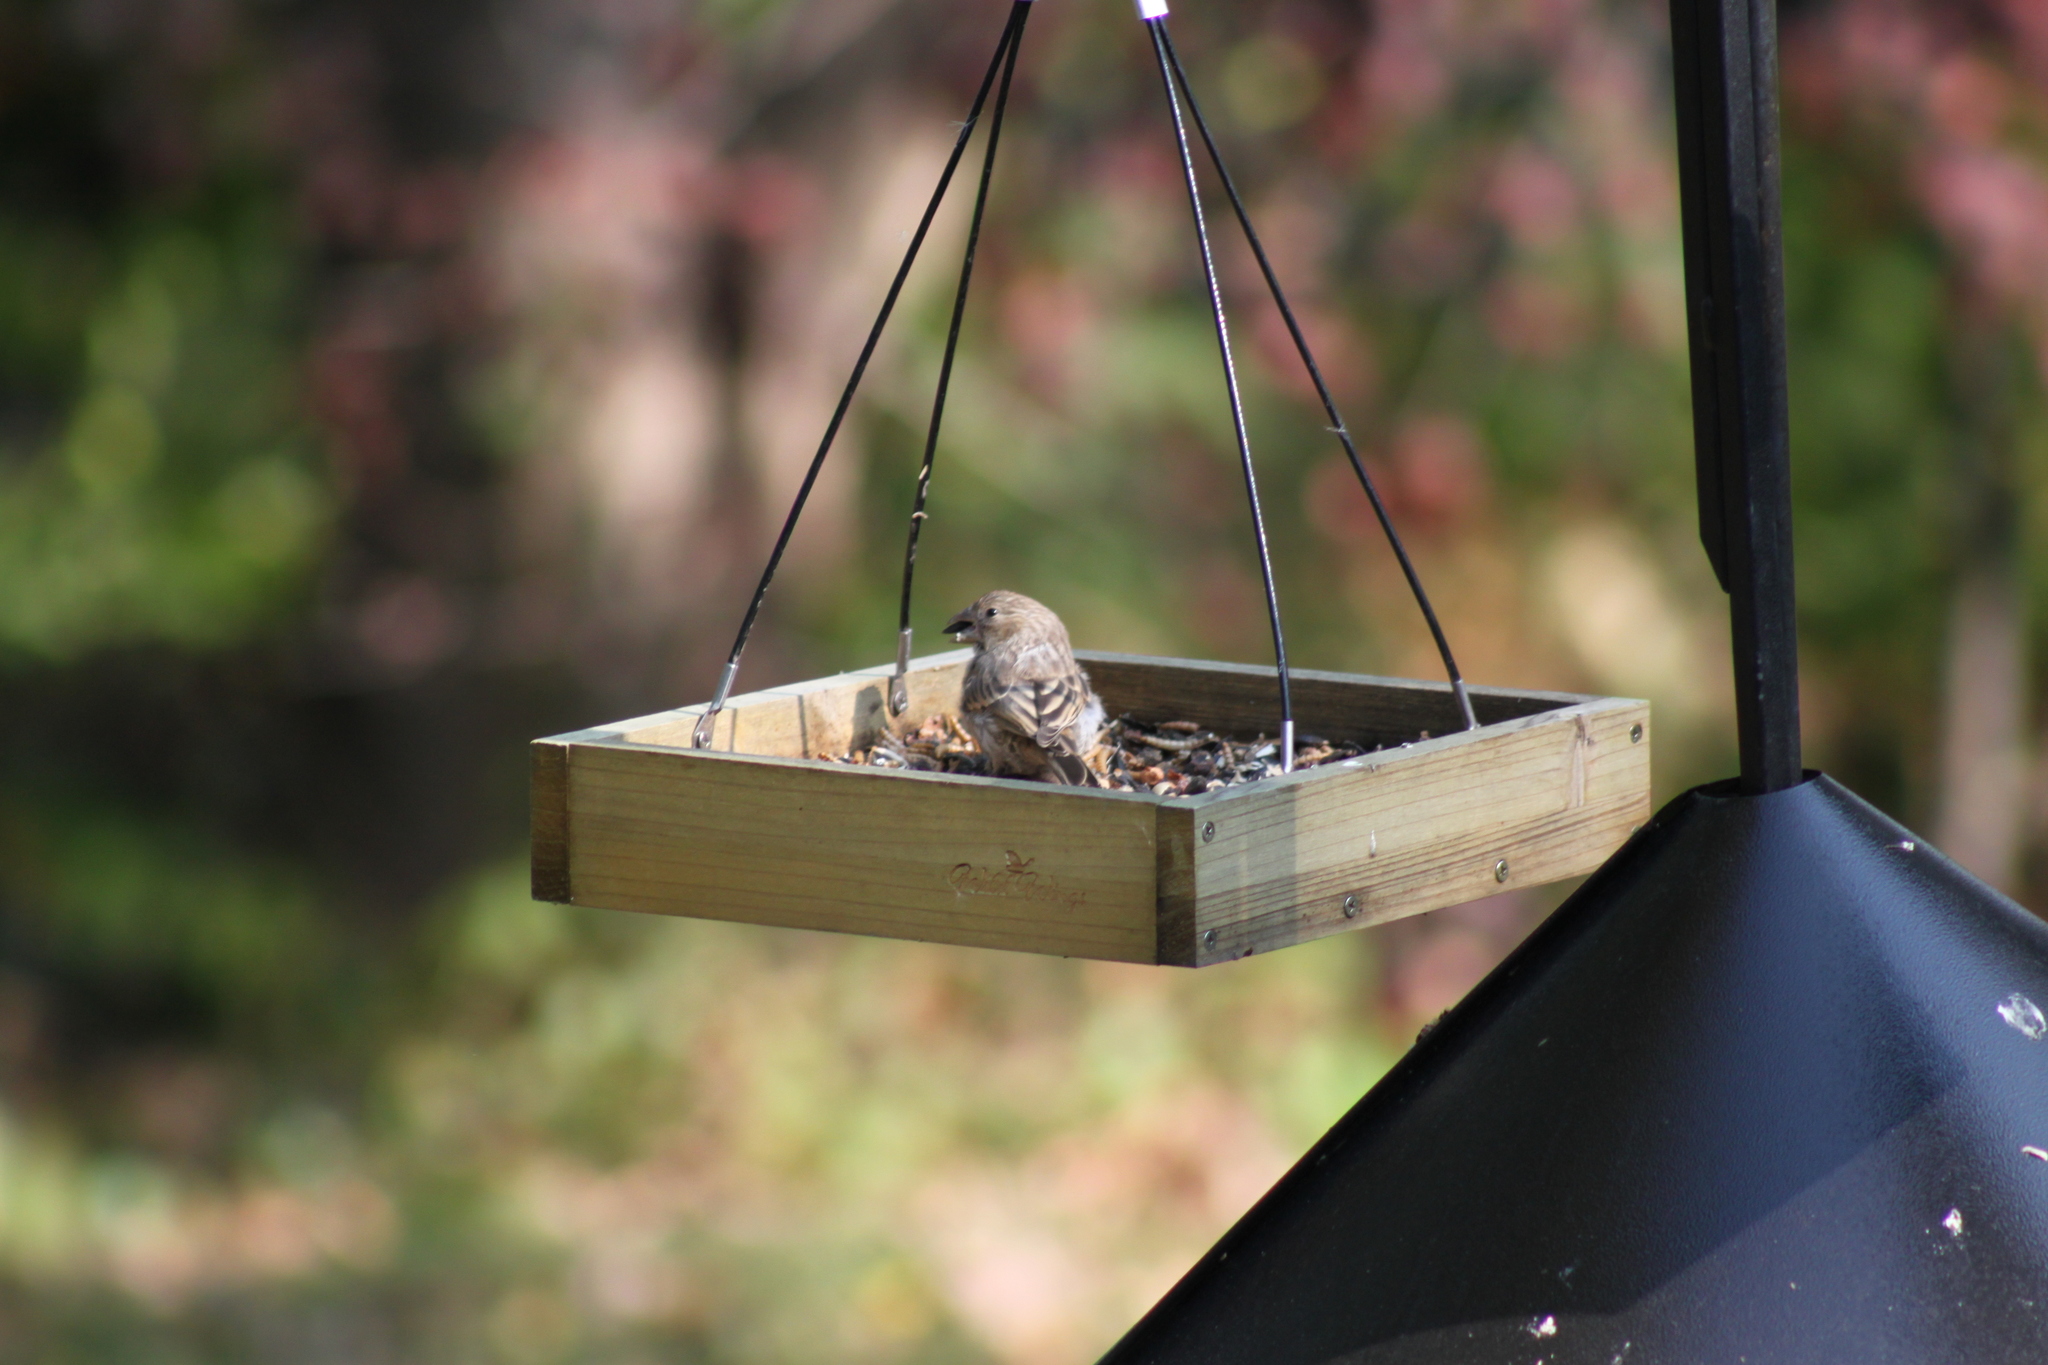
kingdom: Animalia
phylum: Chordata
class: Aves
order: Passeriformes
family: Fringillidae
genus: Haemorhous
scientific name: Haemorhous mexicanus
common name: House finch
